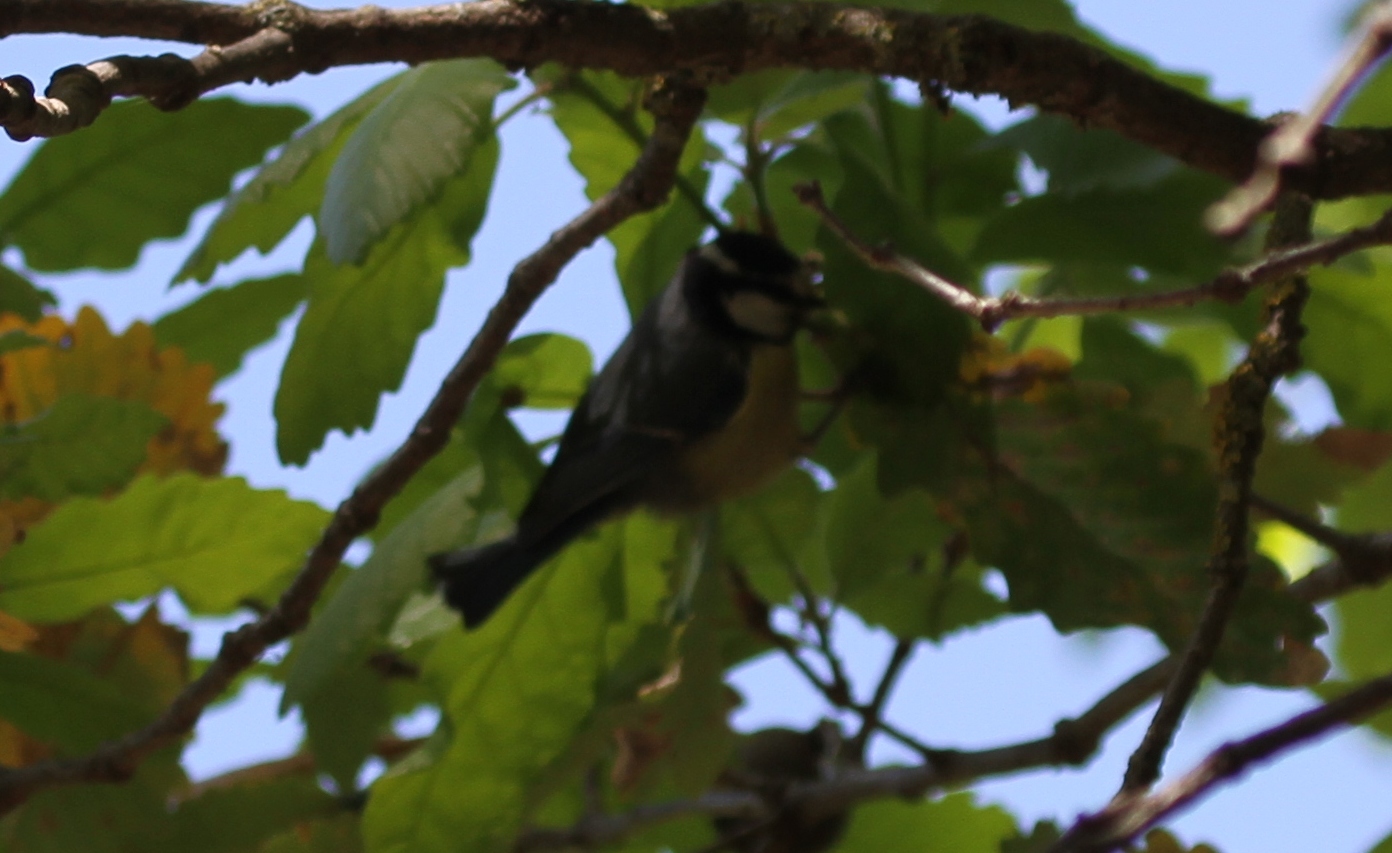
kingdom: Animalia
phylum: Chordata
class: Aves
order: Passeriformes
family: Paridae
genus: Cyanistes
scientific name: Cyanistes teneriffae
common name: African blue tit
